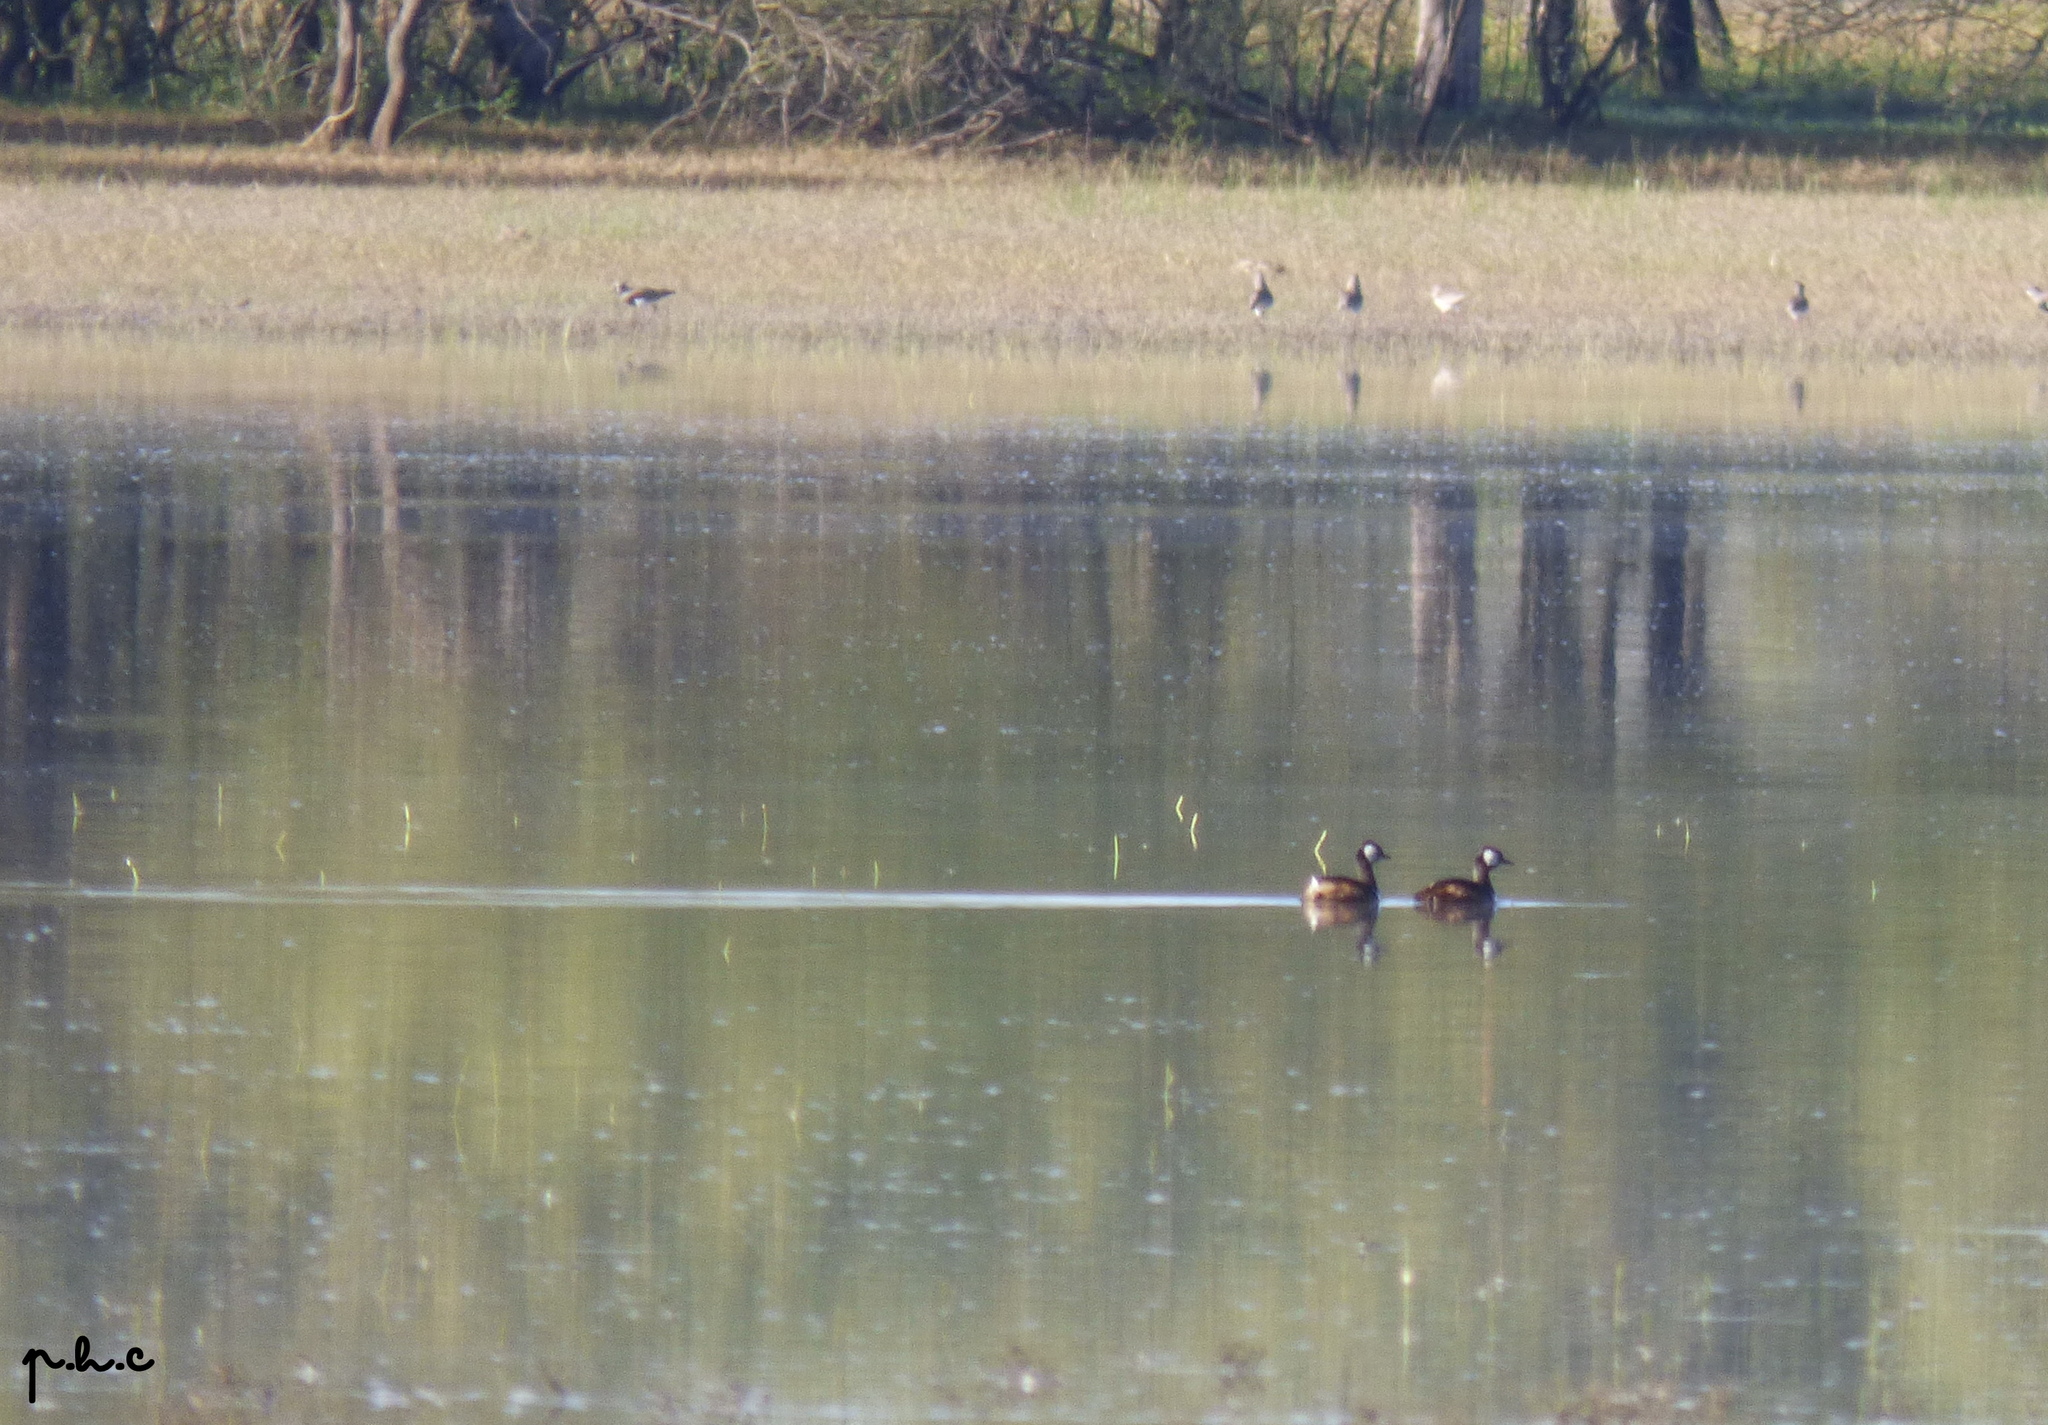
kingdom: Animalia
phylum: Chordata
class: Aves
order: Podicipediformes
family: Podicipedidae
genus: Rollandia
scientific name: Rollandia rolland
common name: White-tufted grebe
